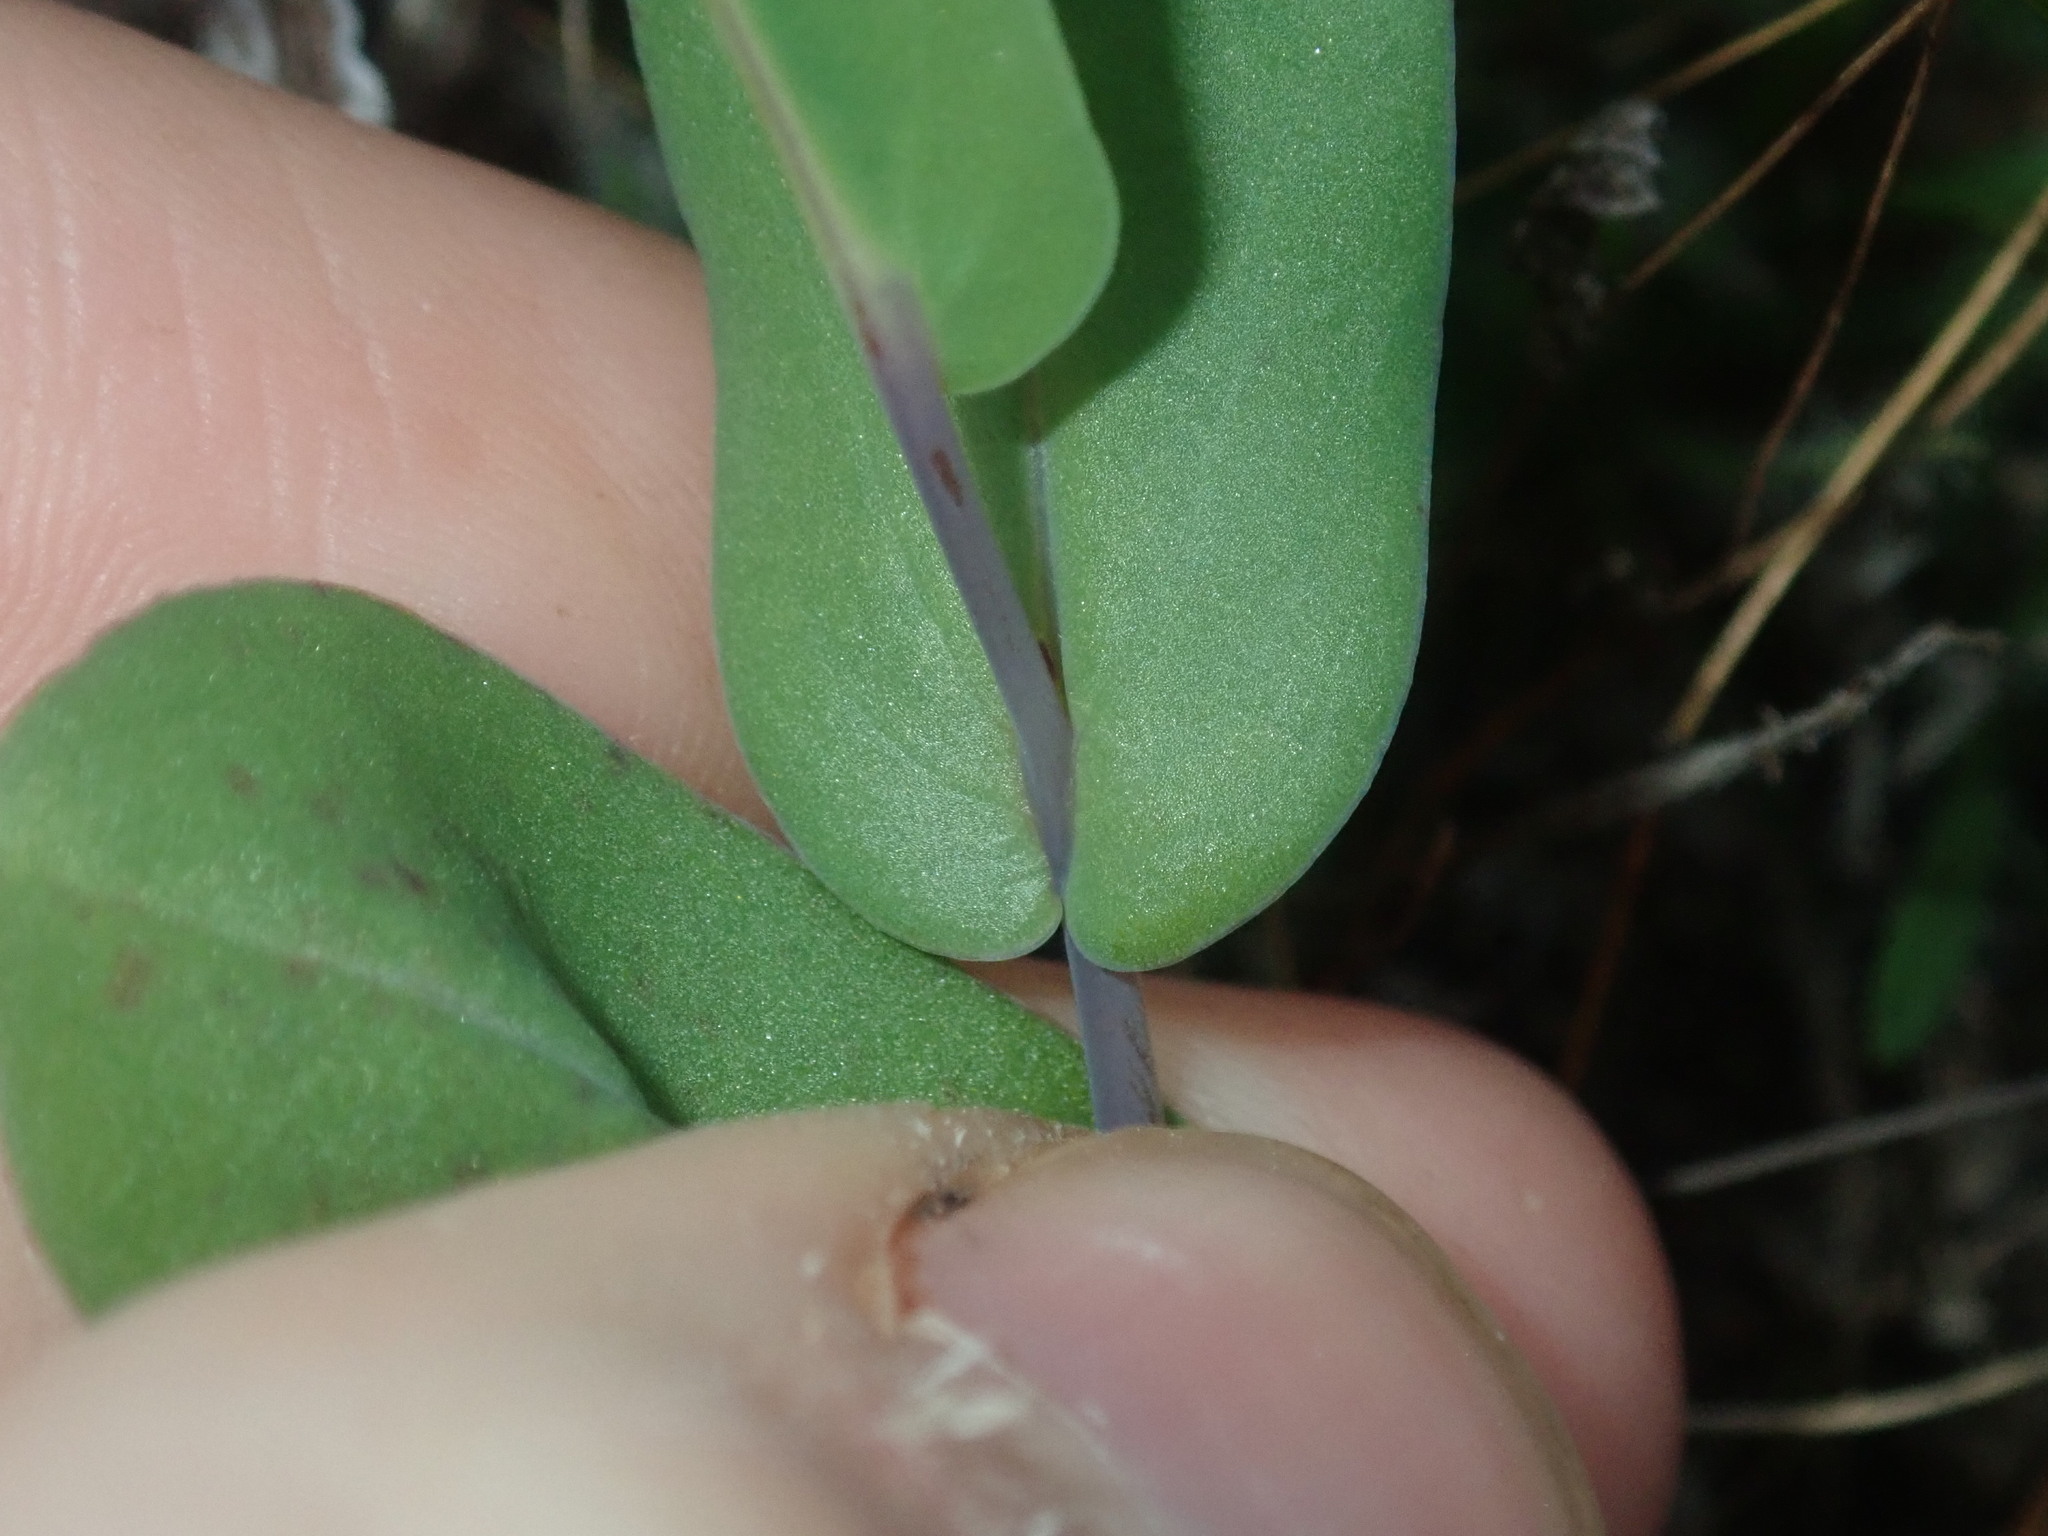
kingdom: Plantae
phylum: Tracheophyta
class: Magnoliopsida
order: Asterales
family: Asteraceae
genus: Rhodanthe
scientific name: Rhodanthe manglesii
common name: Pink sunray
